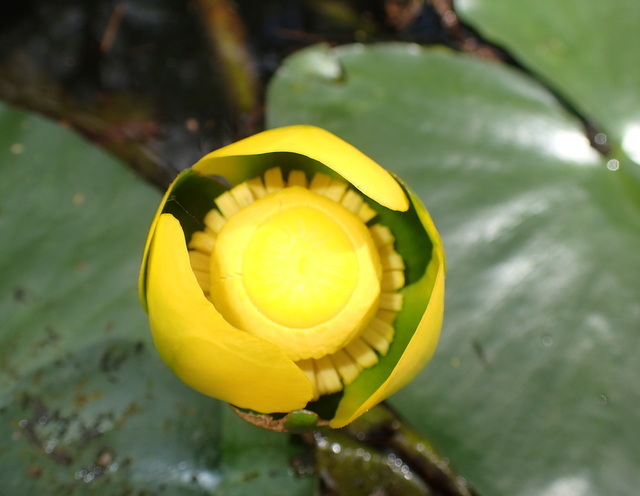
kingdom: Plantae
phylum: Tracheophyta
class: Magnoliopsida
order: Nymphaeales
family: Nymphaeaceae
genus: Nuphar
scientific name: Nuphar advena
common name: Spatter-dock
